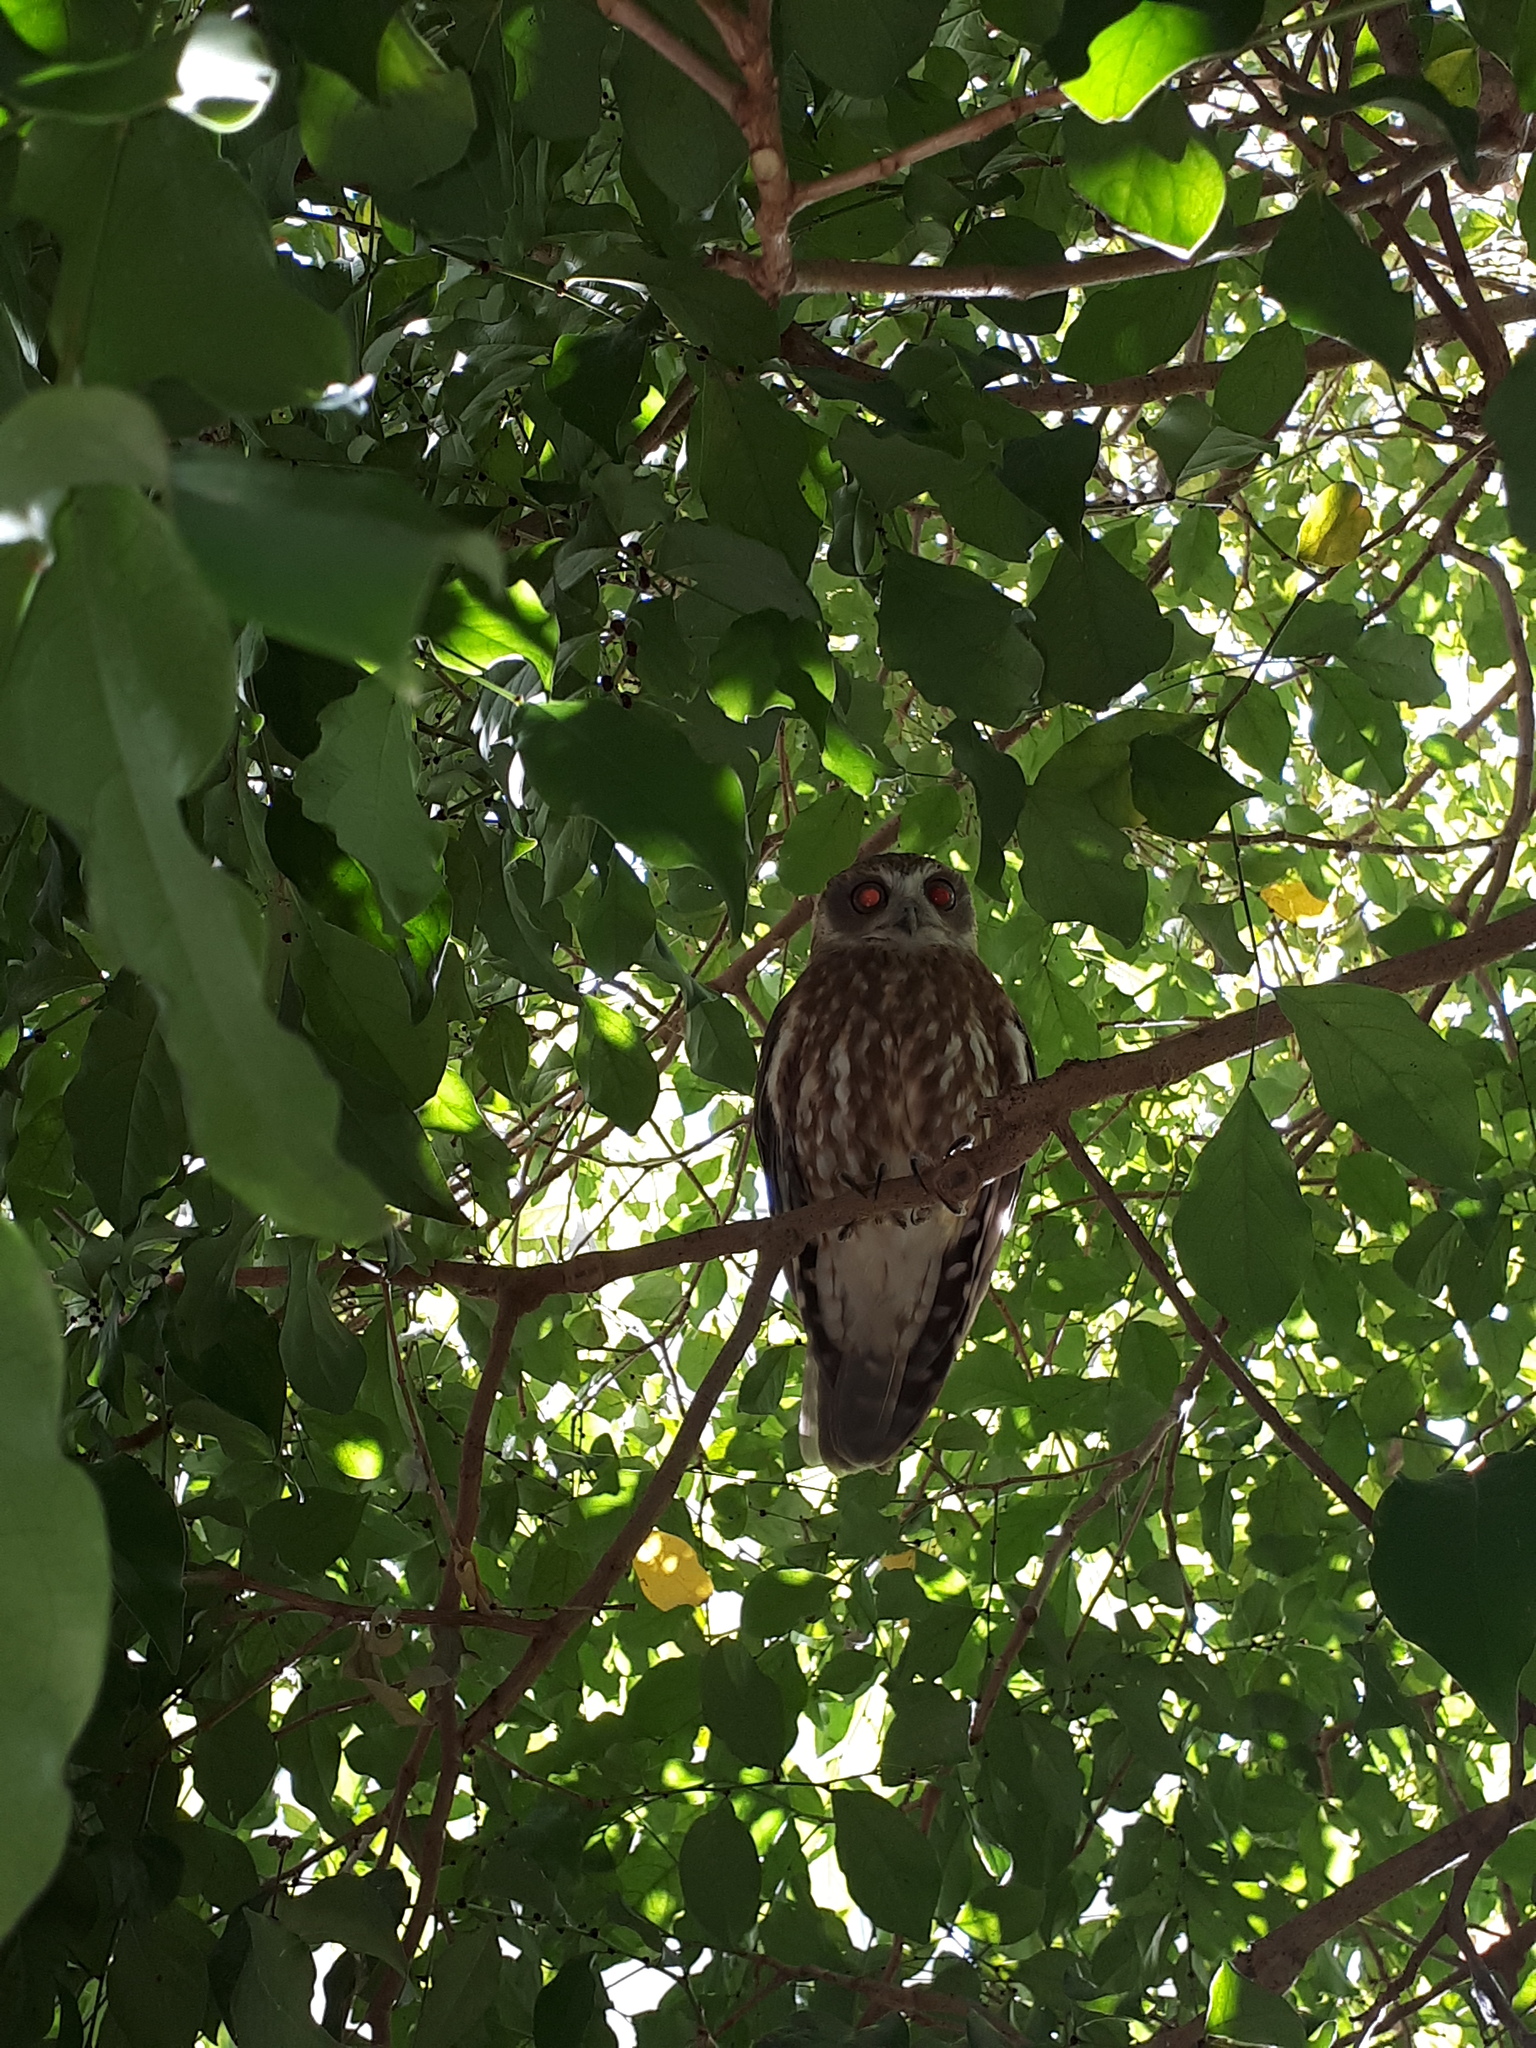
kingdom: Animalia
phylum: Chordata
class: Aves
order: Strigiformes
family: Strigidae
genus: Ninox
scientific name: Ninox boobook
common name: Southern boobook
